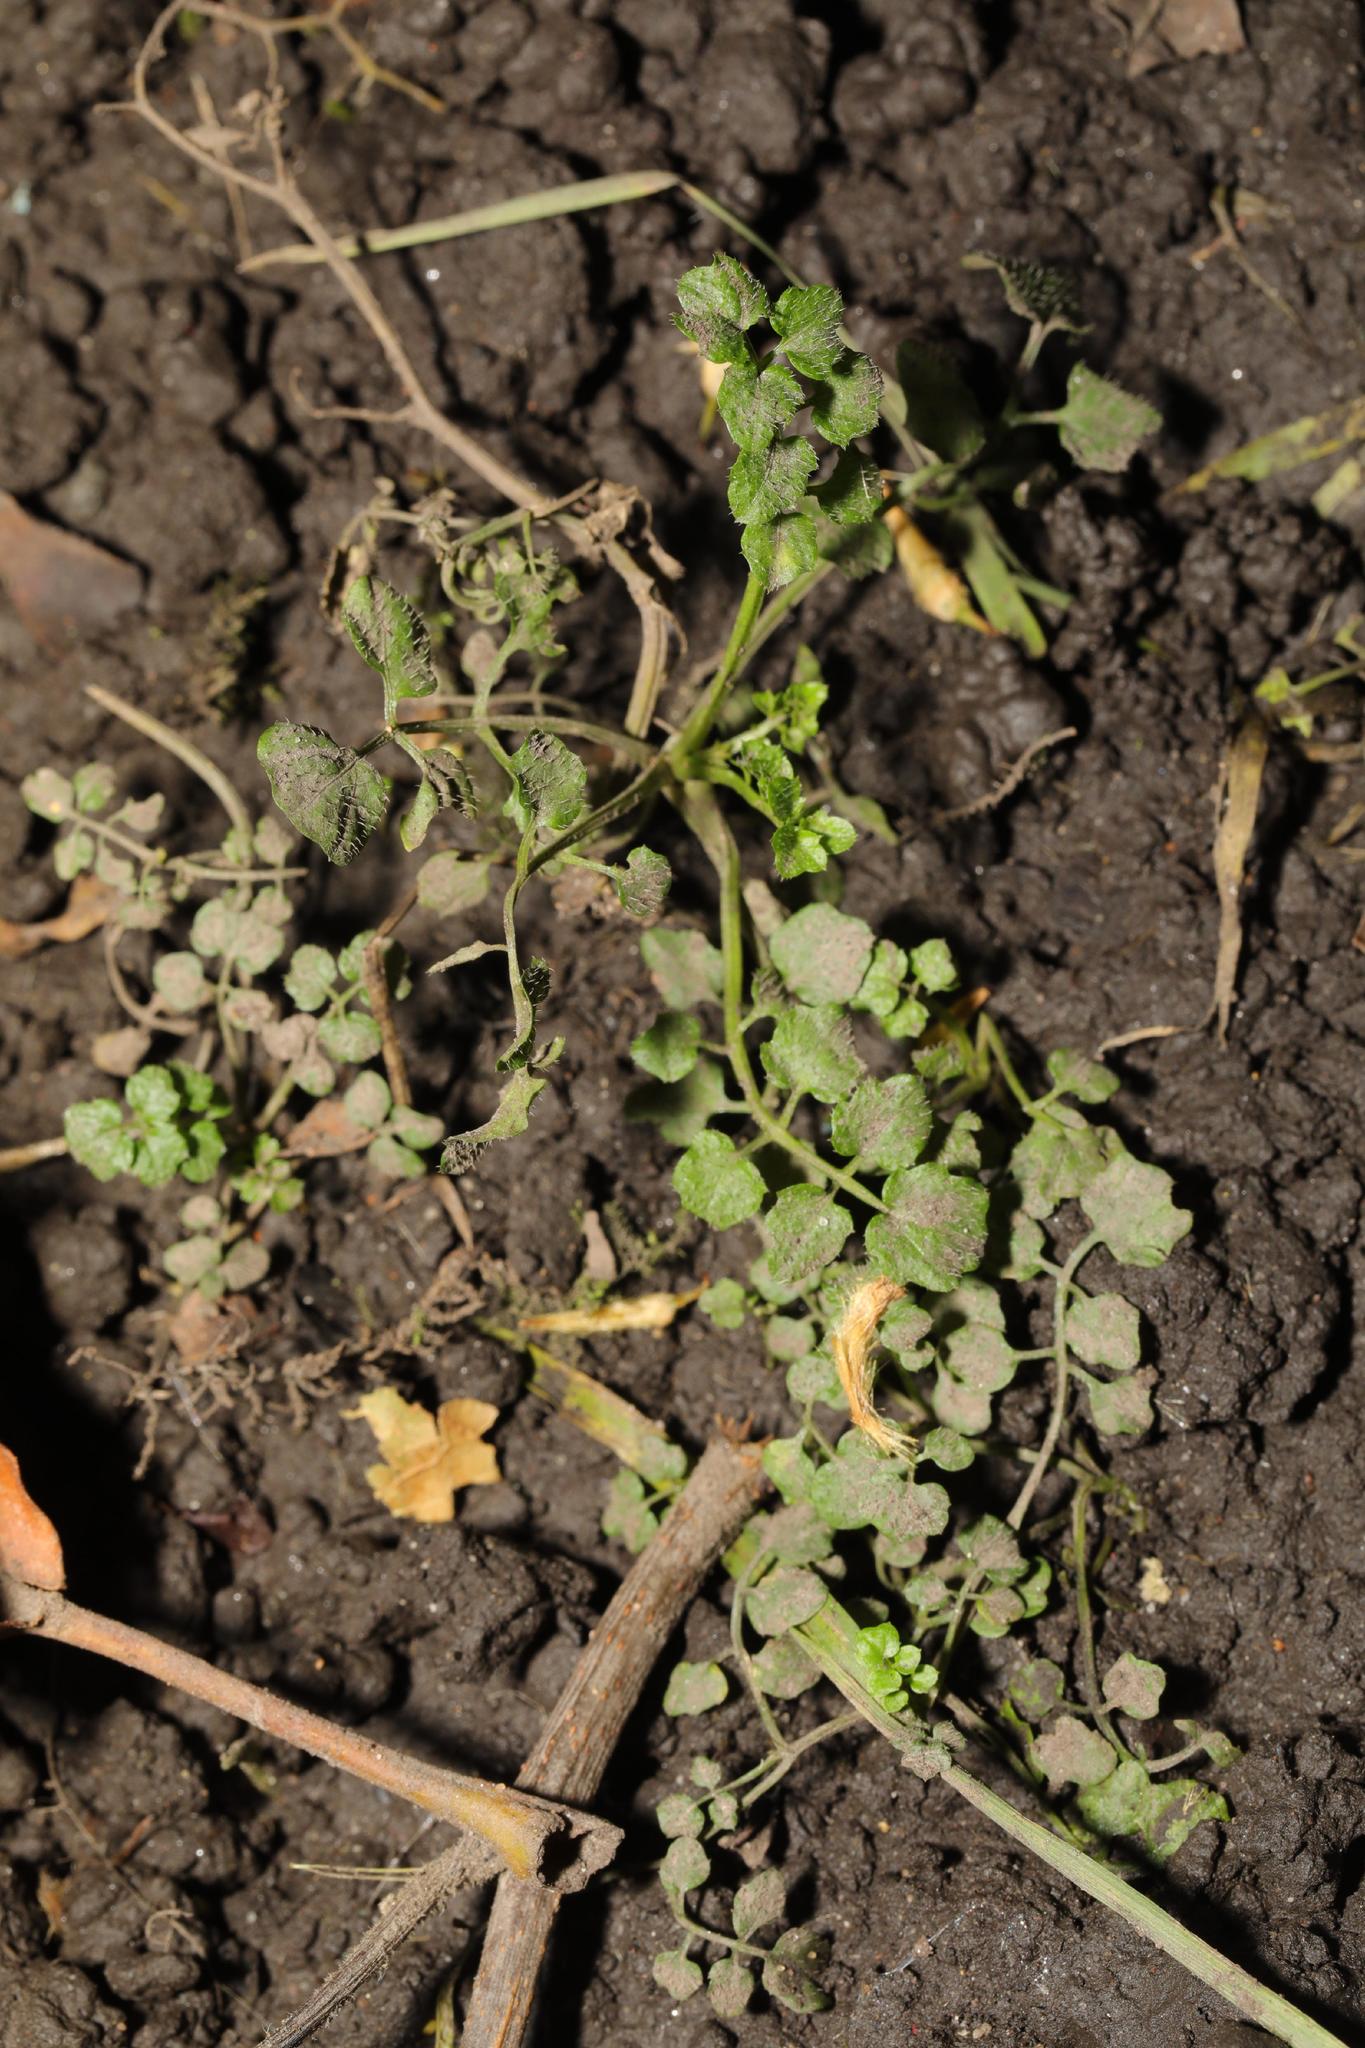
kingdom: Plantae
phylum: Tracheophyta
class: Magnoliopsida
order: Brassicales
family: Brassicaceae
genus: Cardamine
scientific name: Cardamine flexuosa
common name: Woodland bittercress
